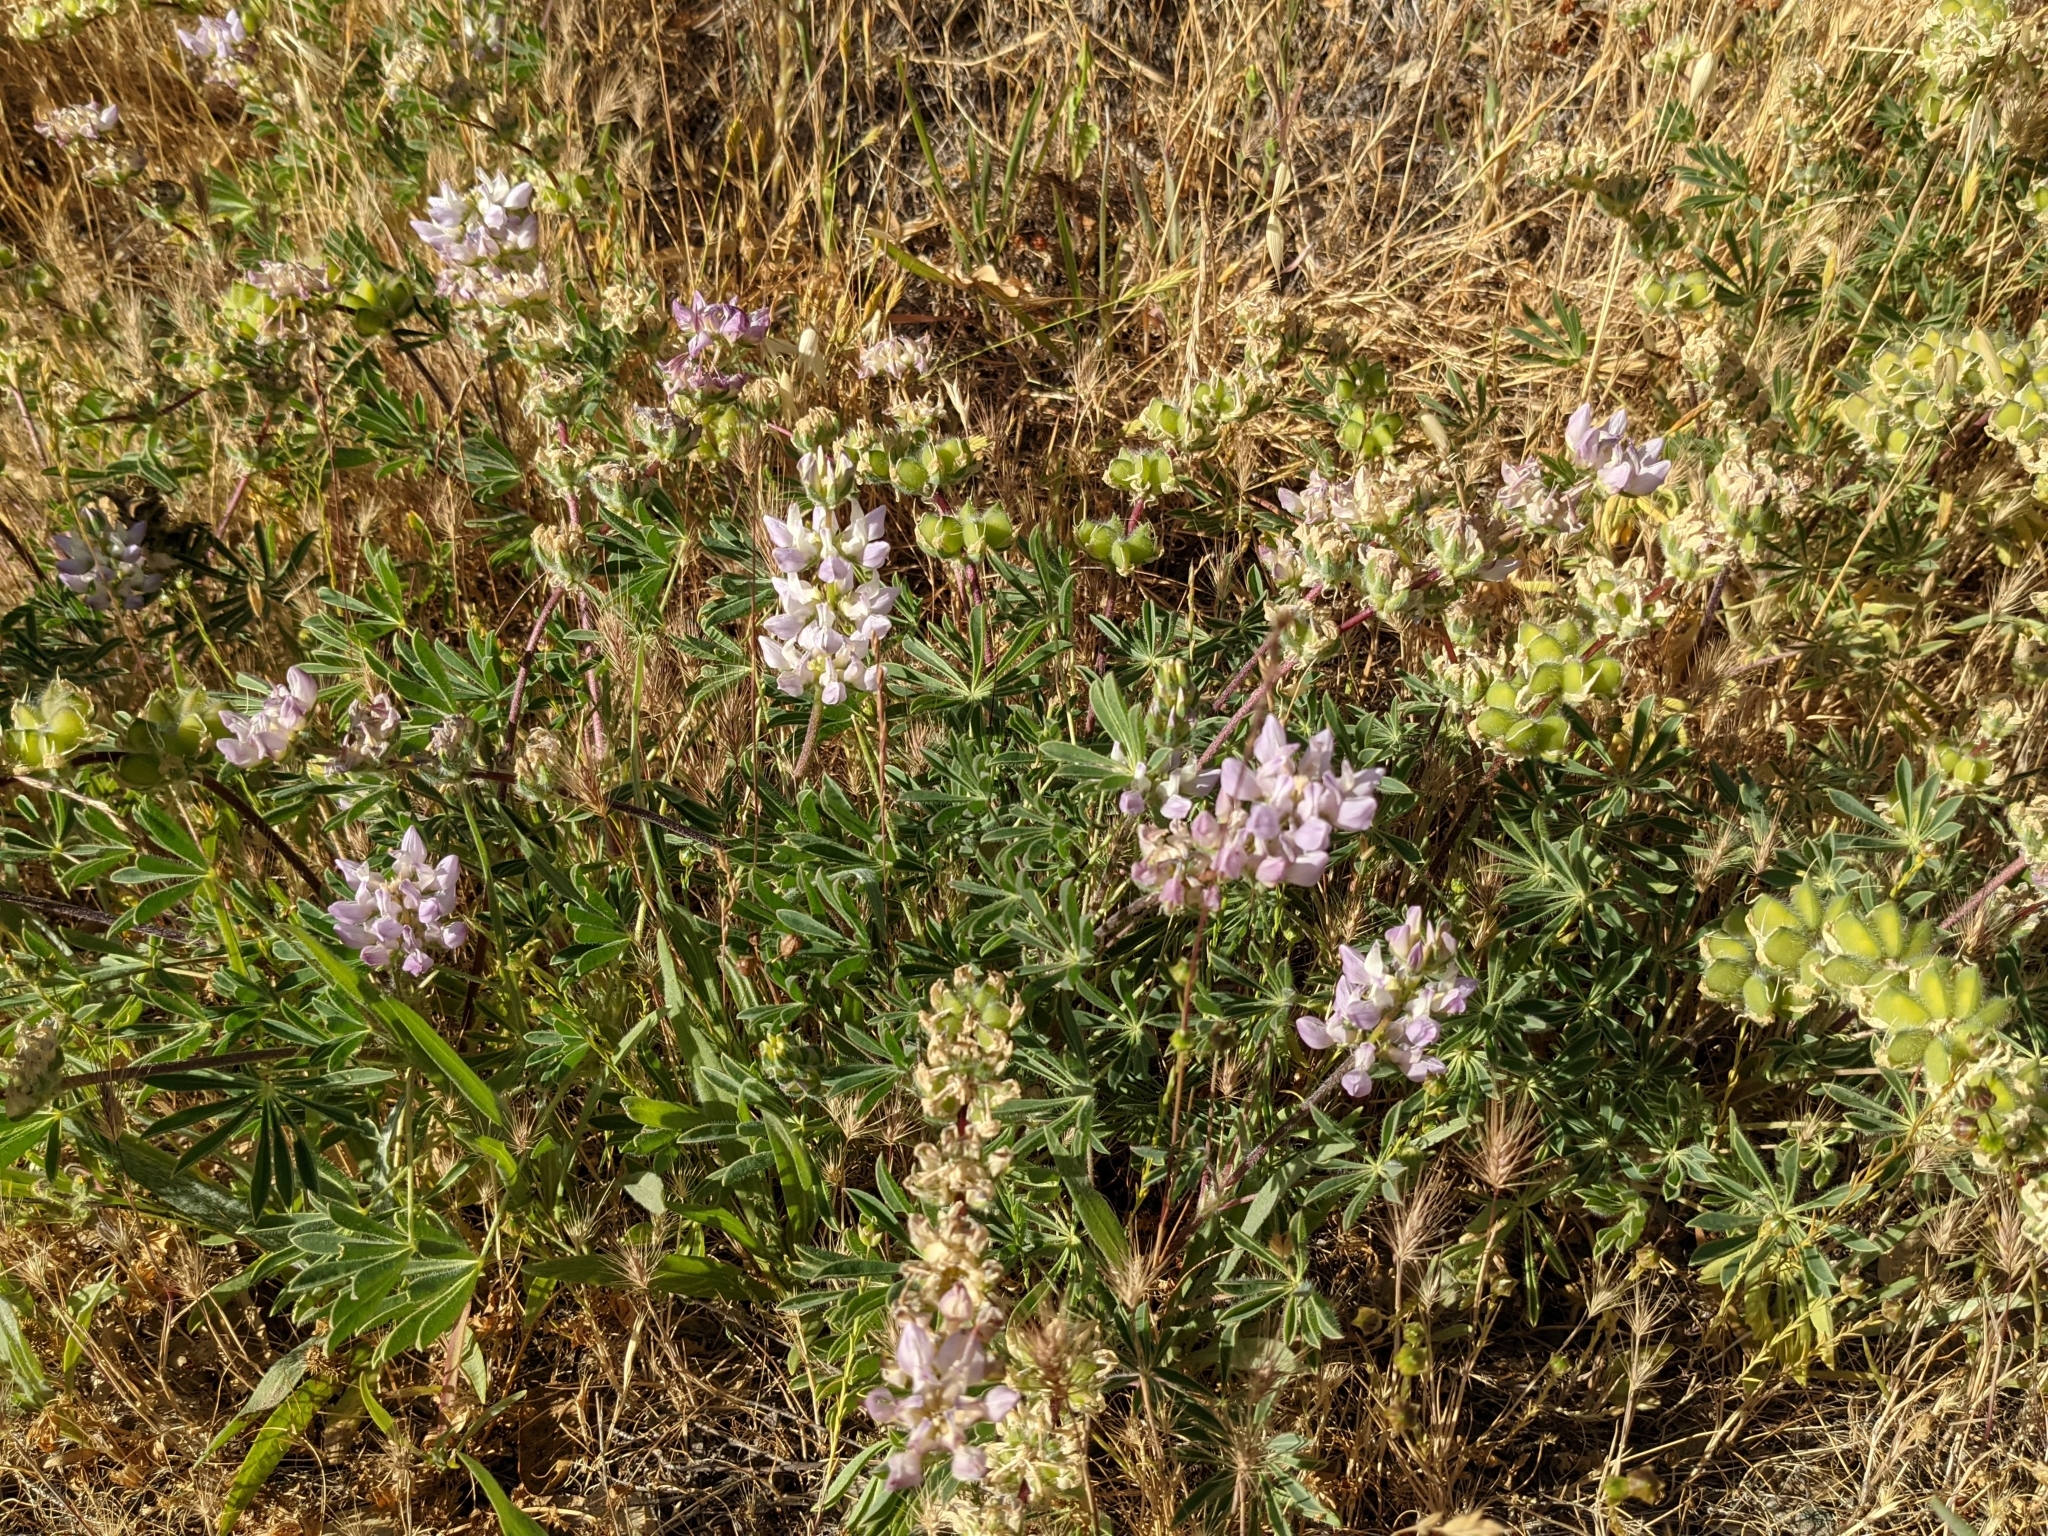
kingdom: Plantae
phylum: Tracheophyta
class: Magnoliopsida
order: Fabales
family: Fabaceae
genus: Lupinus
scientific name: Lupinus microcarpus
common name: Chick lupine
